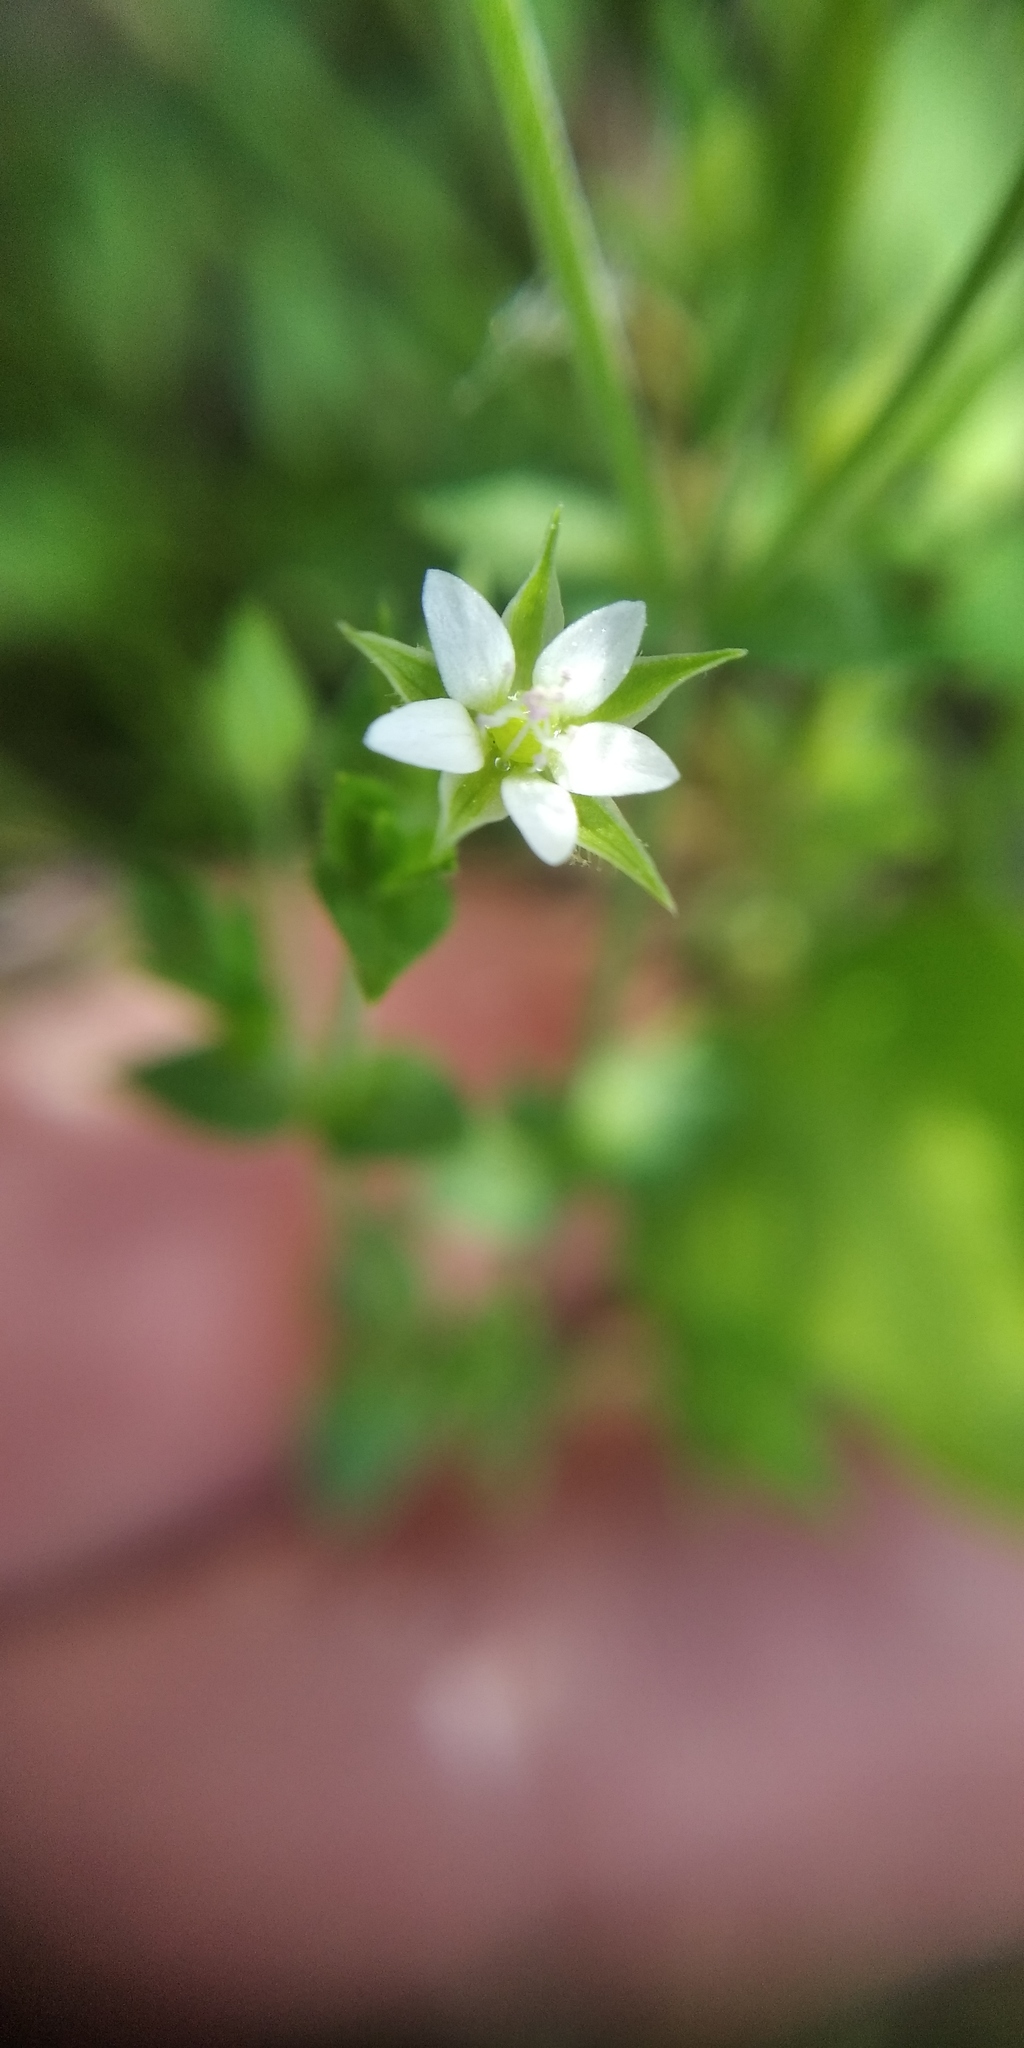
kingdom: Plantae
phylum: Tracheophyta
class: Magnoliopsida
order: Caryophyllales
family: Caryophyllaceae
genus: Arenaria
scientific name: Arenaria serpyllifolia
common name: Thyme-leaved sandwort
